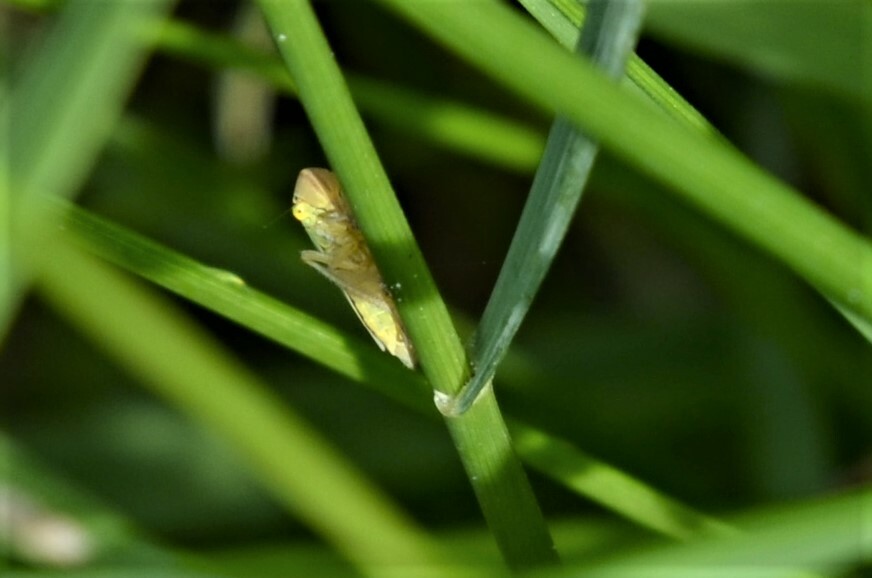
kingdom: Animalia
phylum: Arthropoda
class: Insecta
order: Hemiptera
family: Cicadellidae
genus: Cicadella
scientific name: Cicadella viridis
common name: Leafhopper
